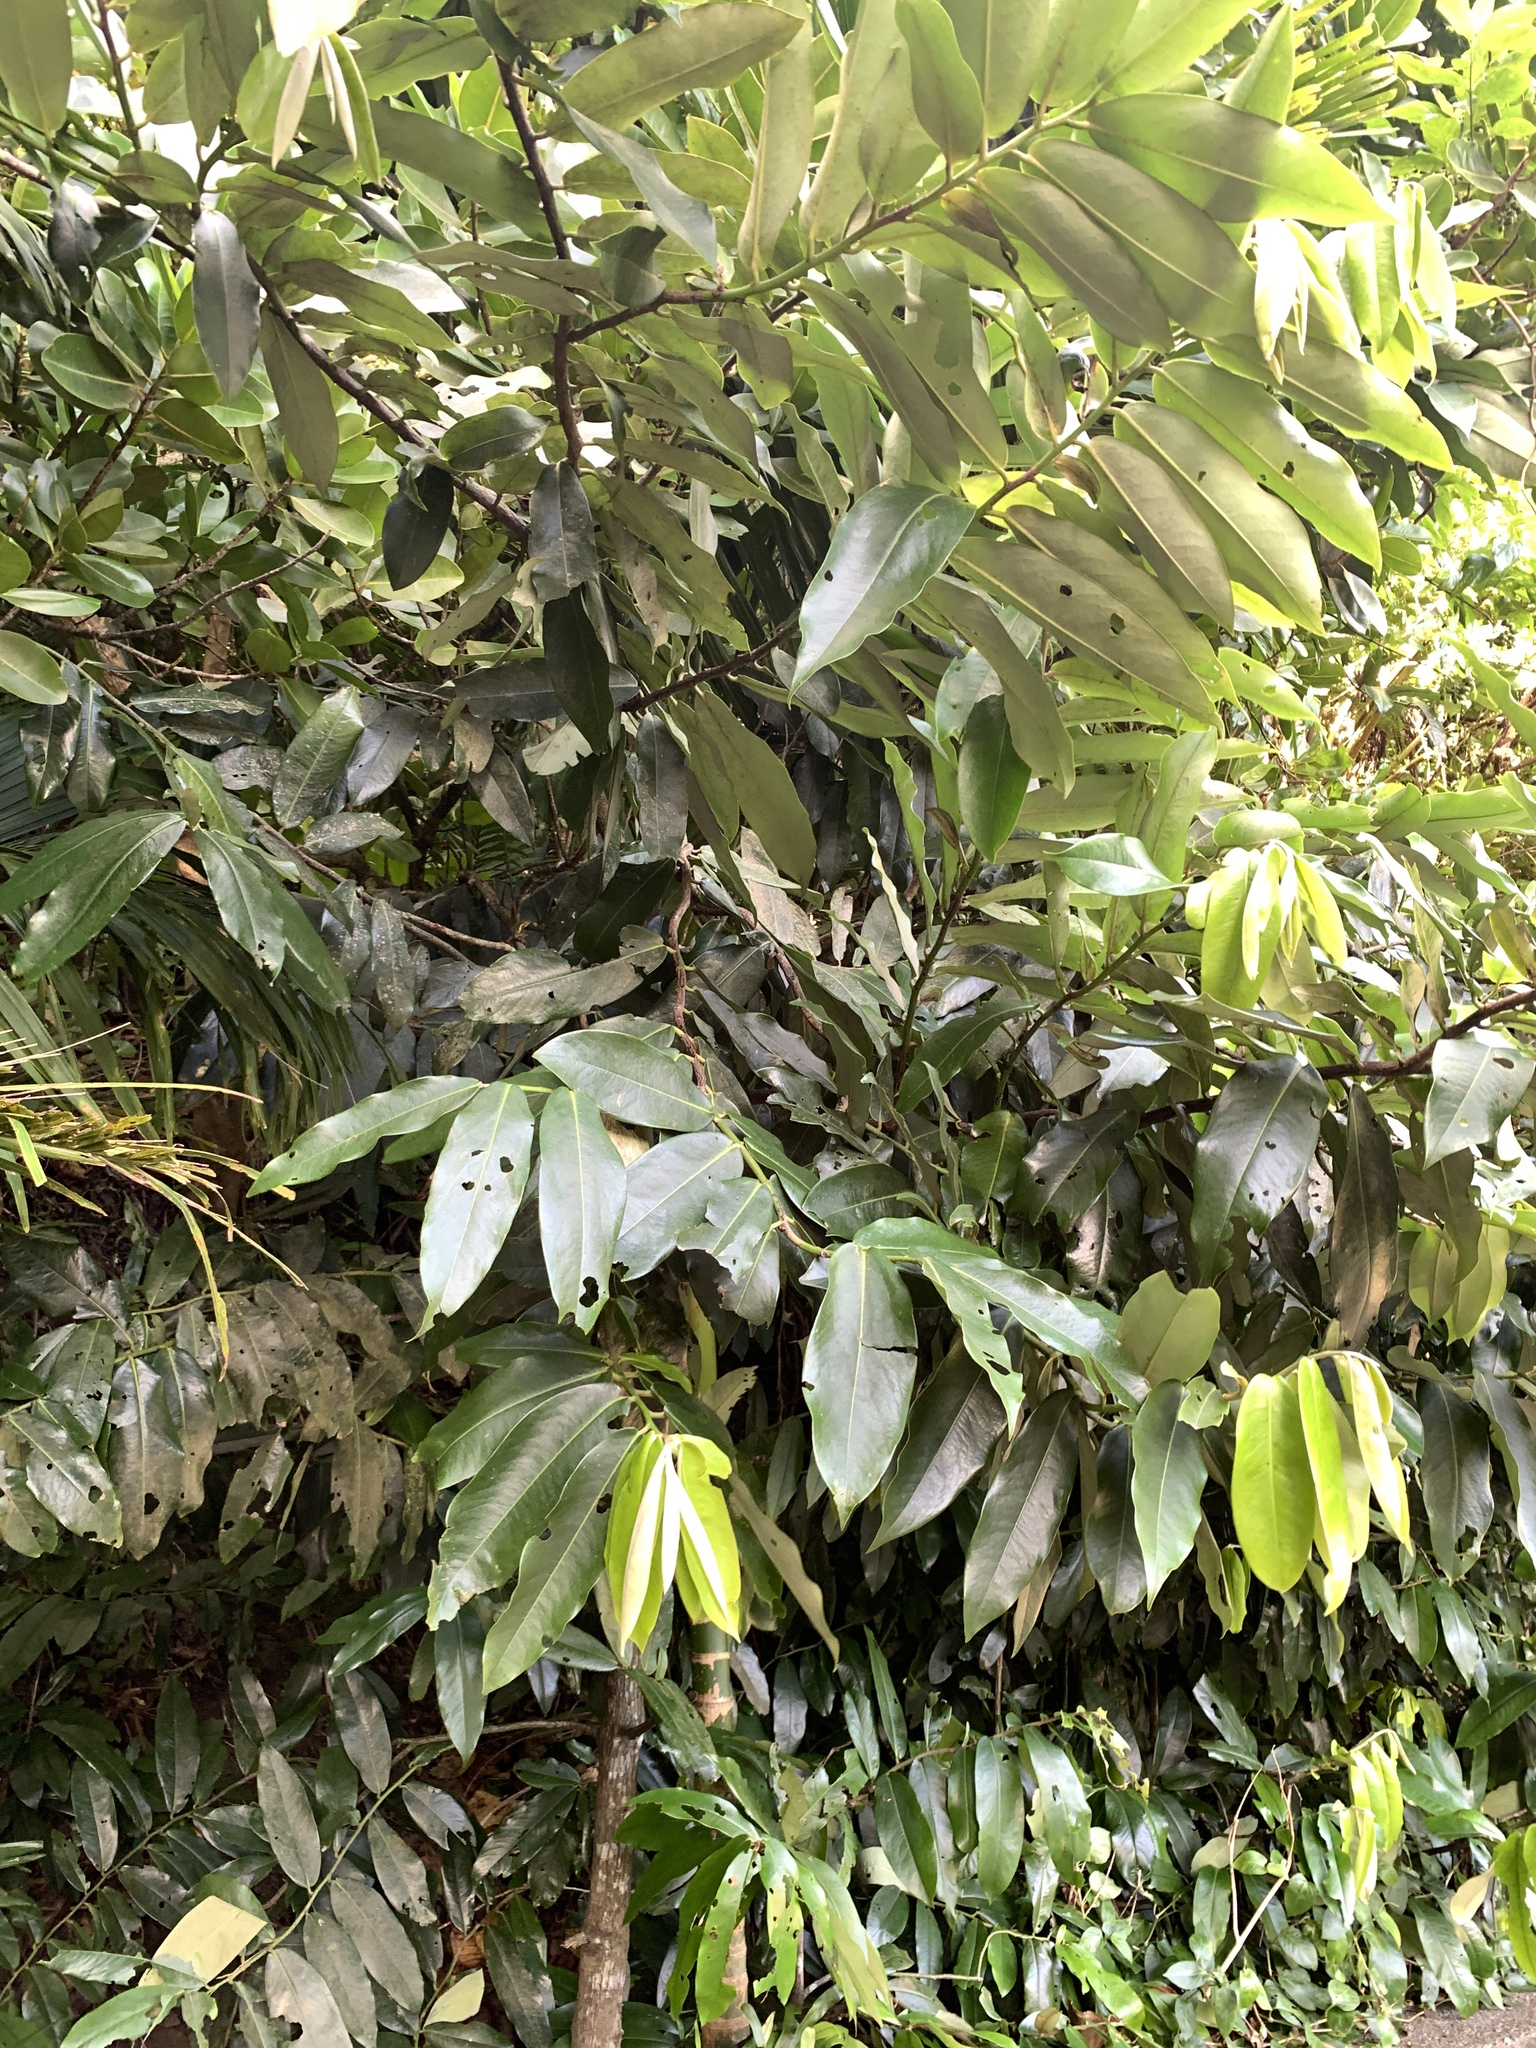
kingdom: Plantae
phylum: Tracheophyta
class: Magnoliopsida
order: Ericales
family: Ebenaceae
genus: Diospyros
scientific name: Diospyros blancoi
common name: Mabola-tree
